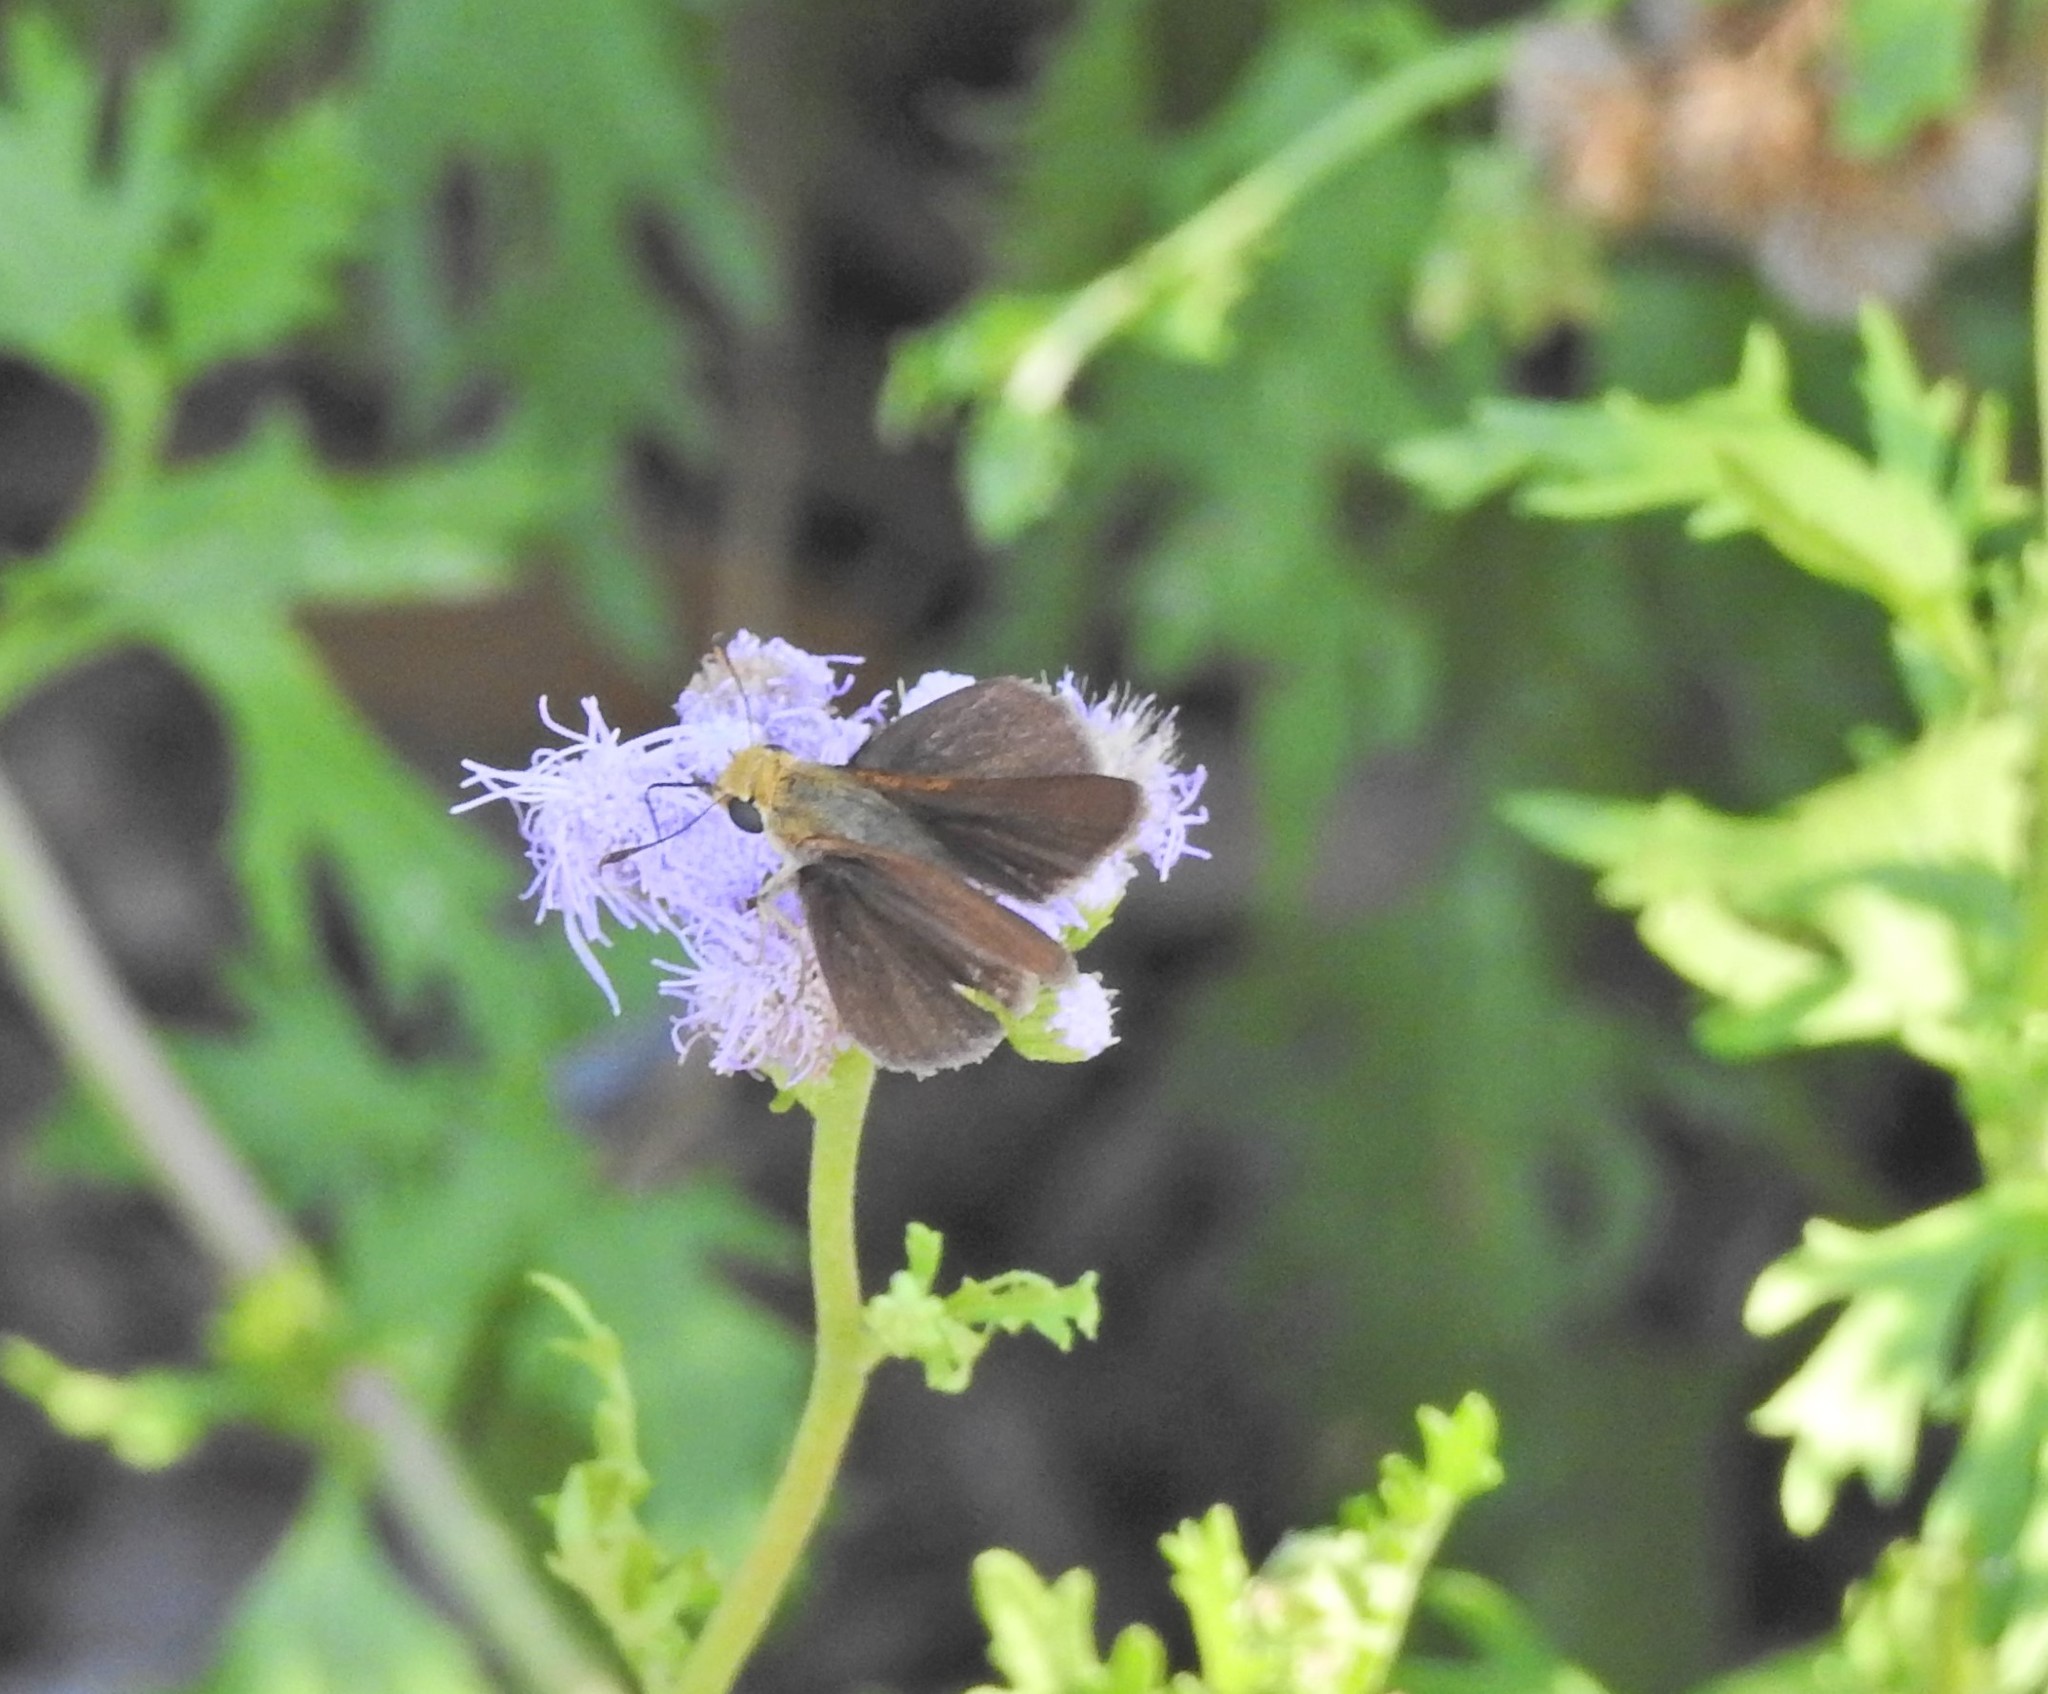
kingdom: Animalia
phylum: Arthropoda
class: Insecta
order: Lepidoptera
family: Hesperiidae
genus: Euphyes
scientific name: Euphyes vestris
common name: Dun skipper
